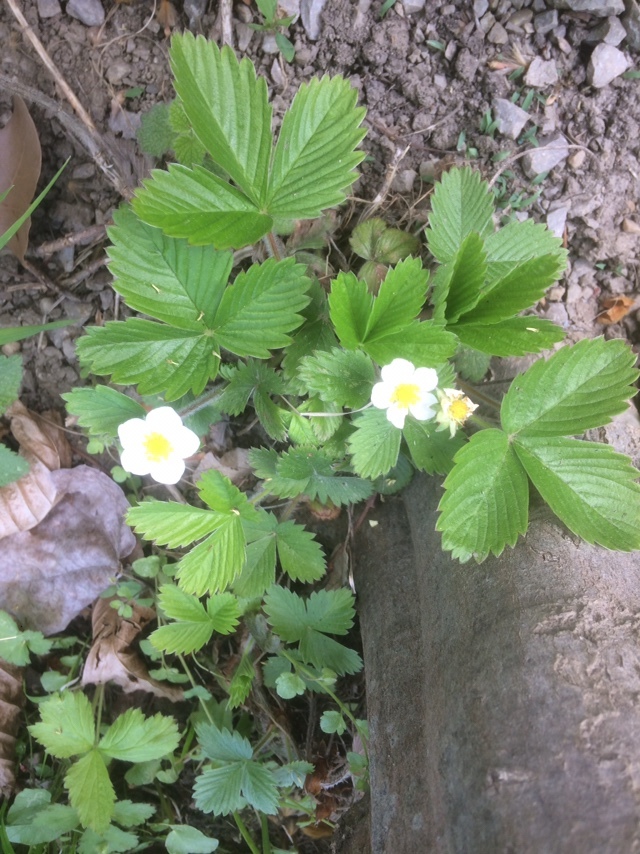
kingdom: Plantae
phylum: Tracheophyta
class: Magnoliopsida
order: Rosales
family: Rosaceae
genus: Fragaria
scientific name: Fragaria viridis
